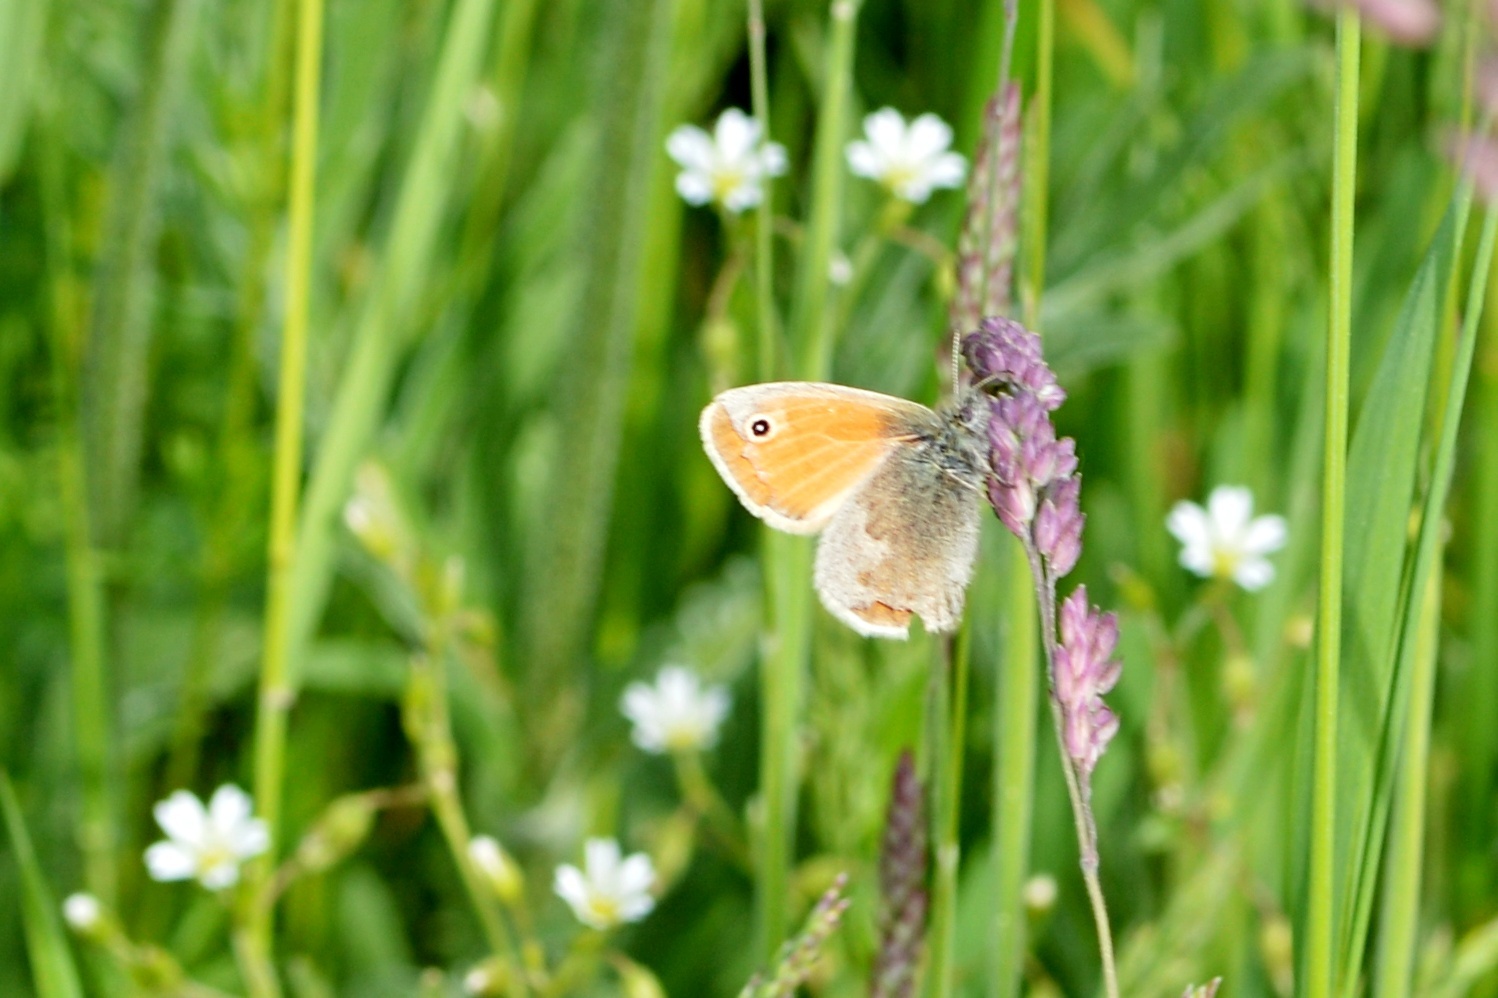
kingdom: Animalia
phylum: Arthropoda
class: Insecta
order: Lepidoptera
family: Nymphalidae
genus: Coenonympha
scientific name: Coenonympha pamphilus
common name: Small heath
